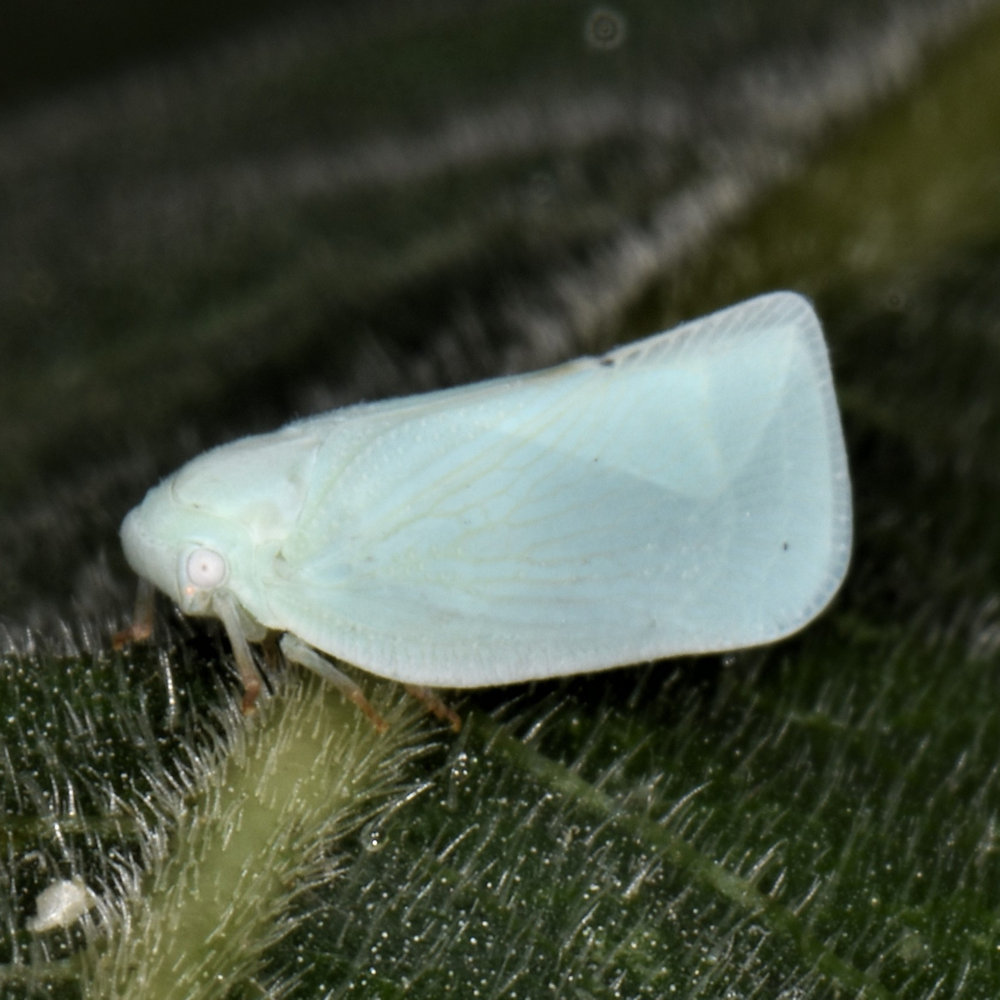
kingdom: Animalia
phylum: Arthropoda
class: Insecta
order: Hemiptera
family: Flatidae
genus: Flatormenis
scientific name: Flatormenis proxima
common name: Northern flatid planthopper
